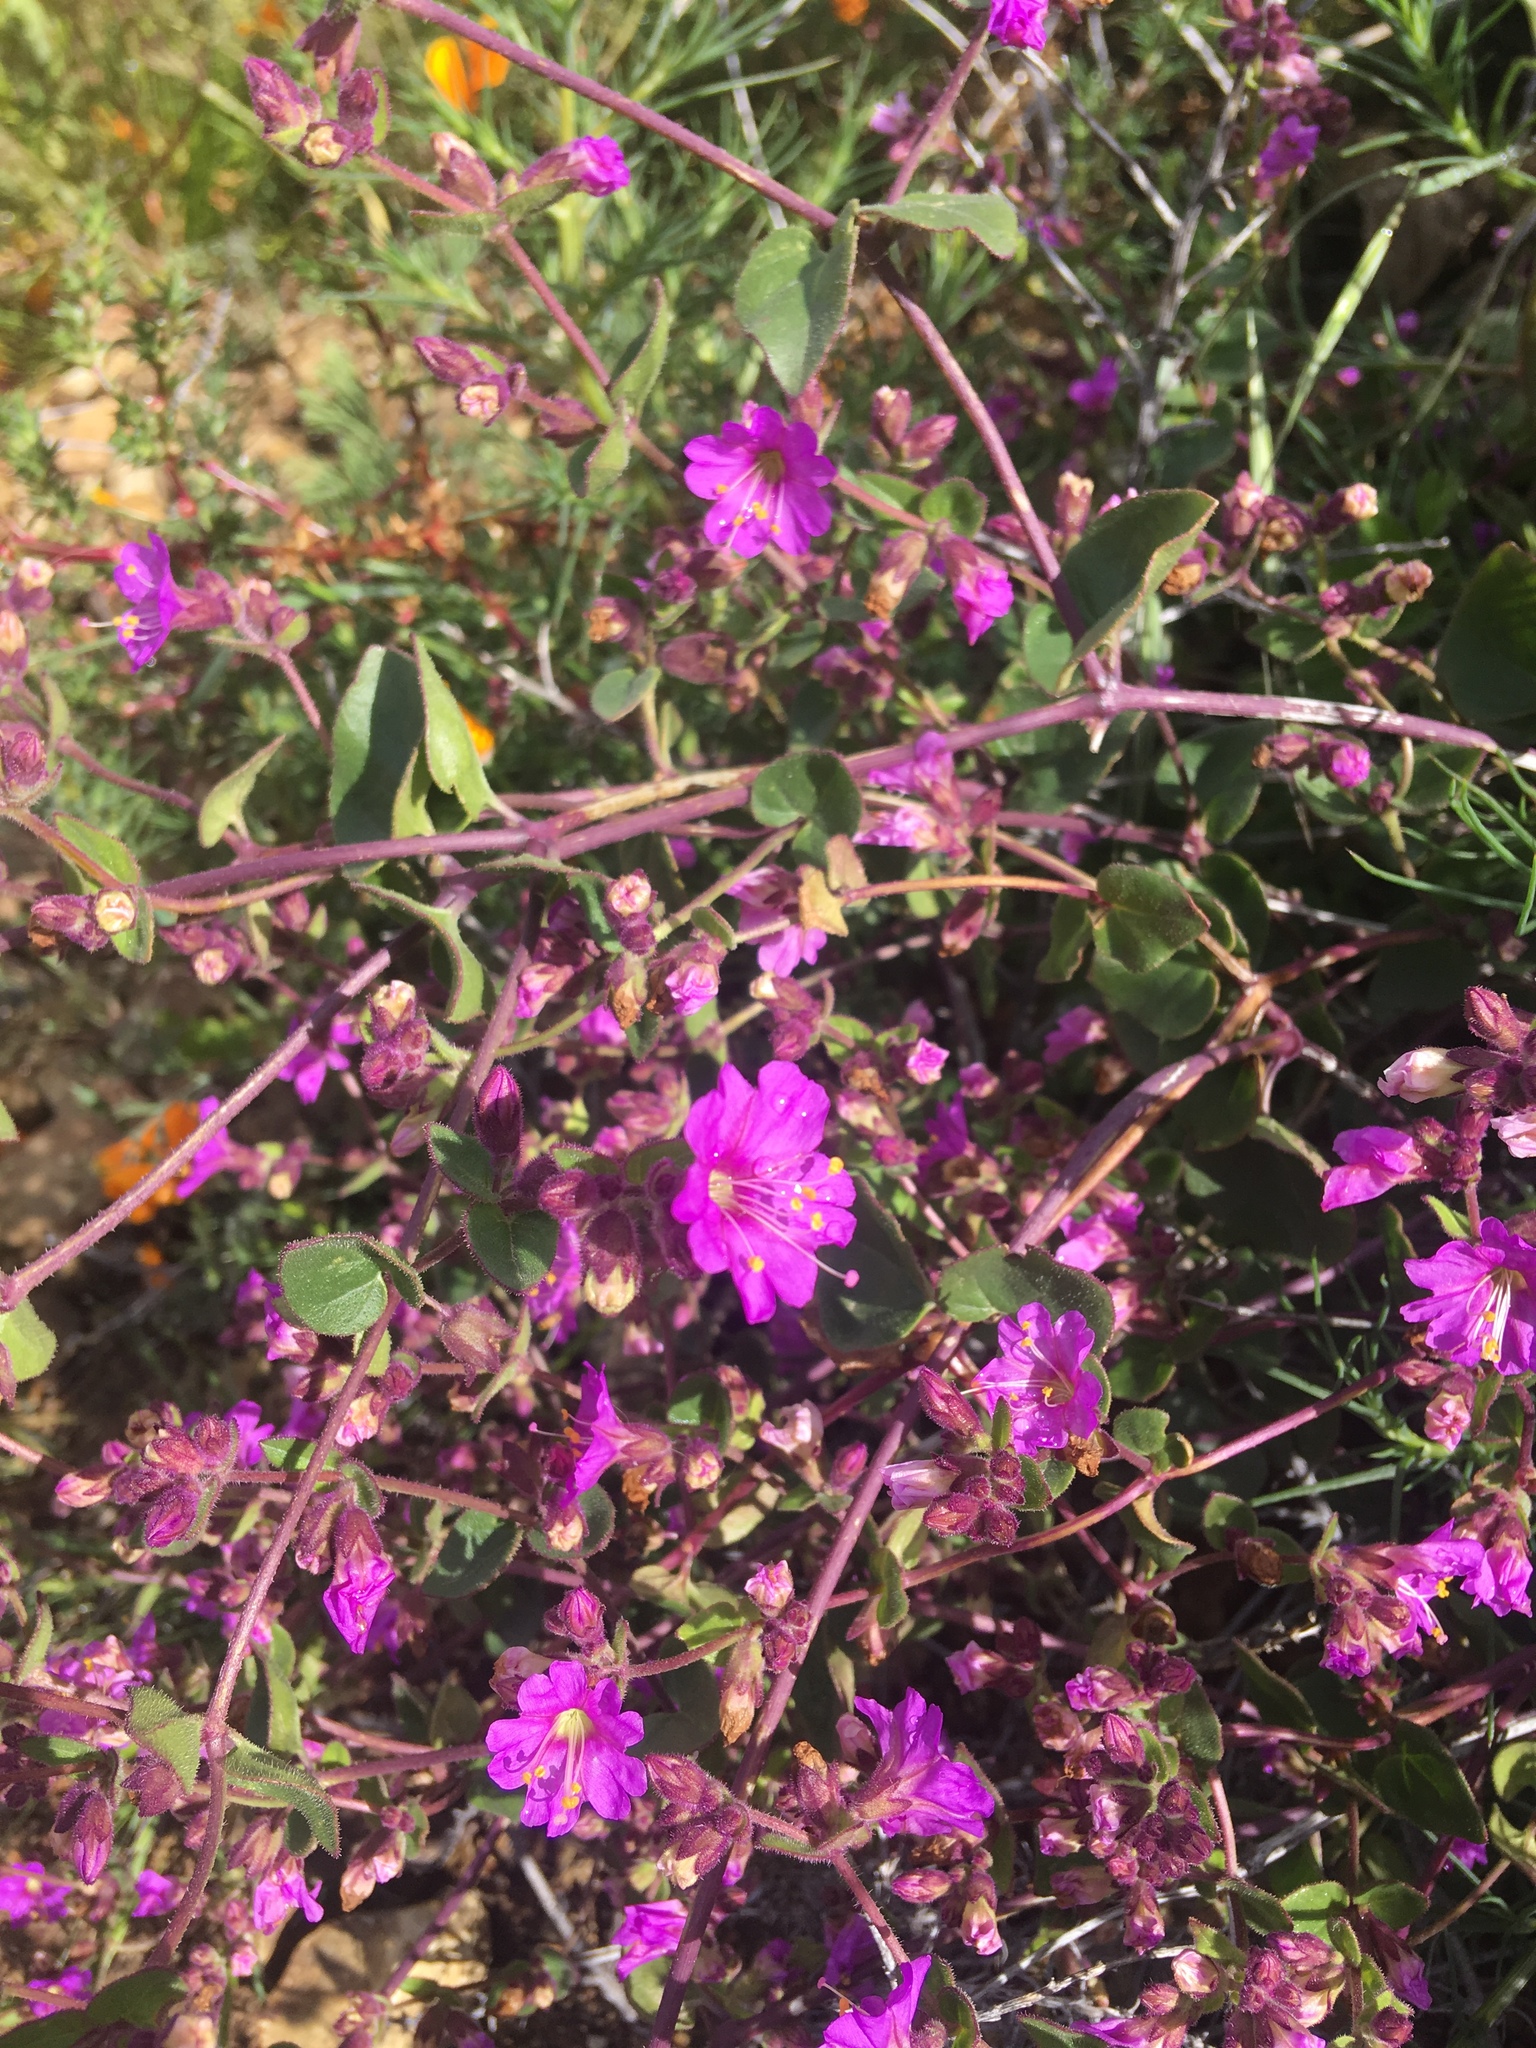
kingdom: Plantae
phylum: Tracheophyta
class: Magnoliopsida
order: Caryophyllales
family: Nyctaginaceae
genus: Mirabilis
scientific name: Mirabilis laevis
